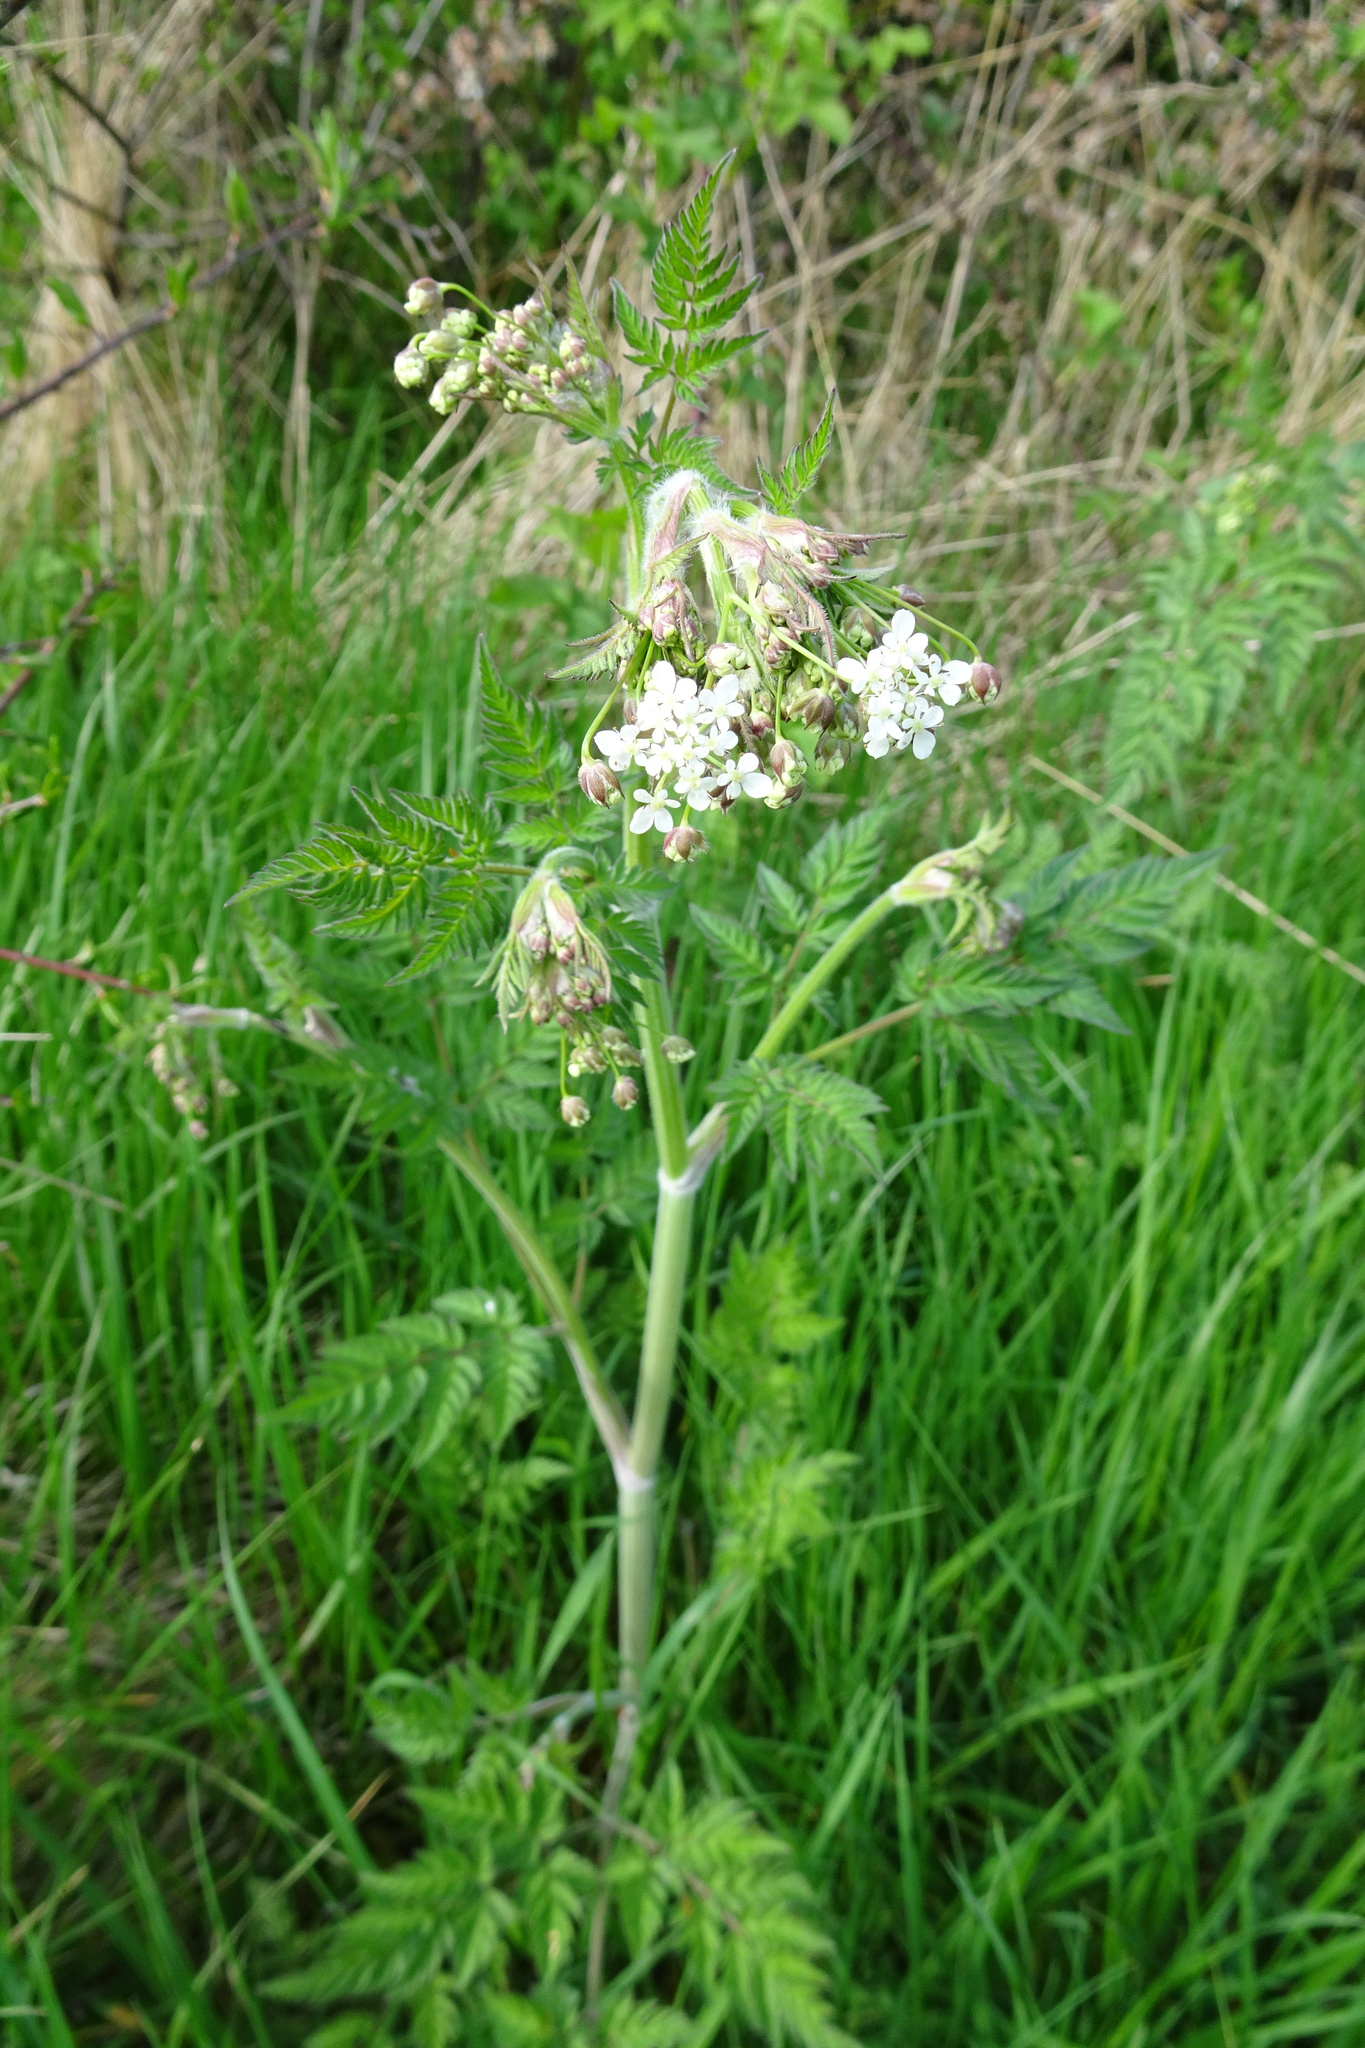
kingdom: Plantae
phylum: Tracheophyta
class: Magnoliopsida
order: Apiales
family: Apiaceae
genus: Anthriscus
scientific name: Anthriscus sylvestris
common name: Cow parsley
